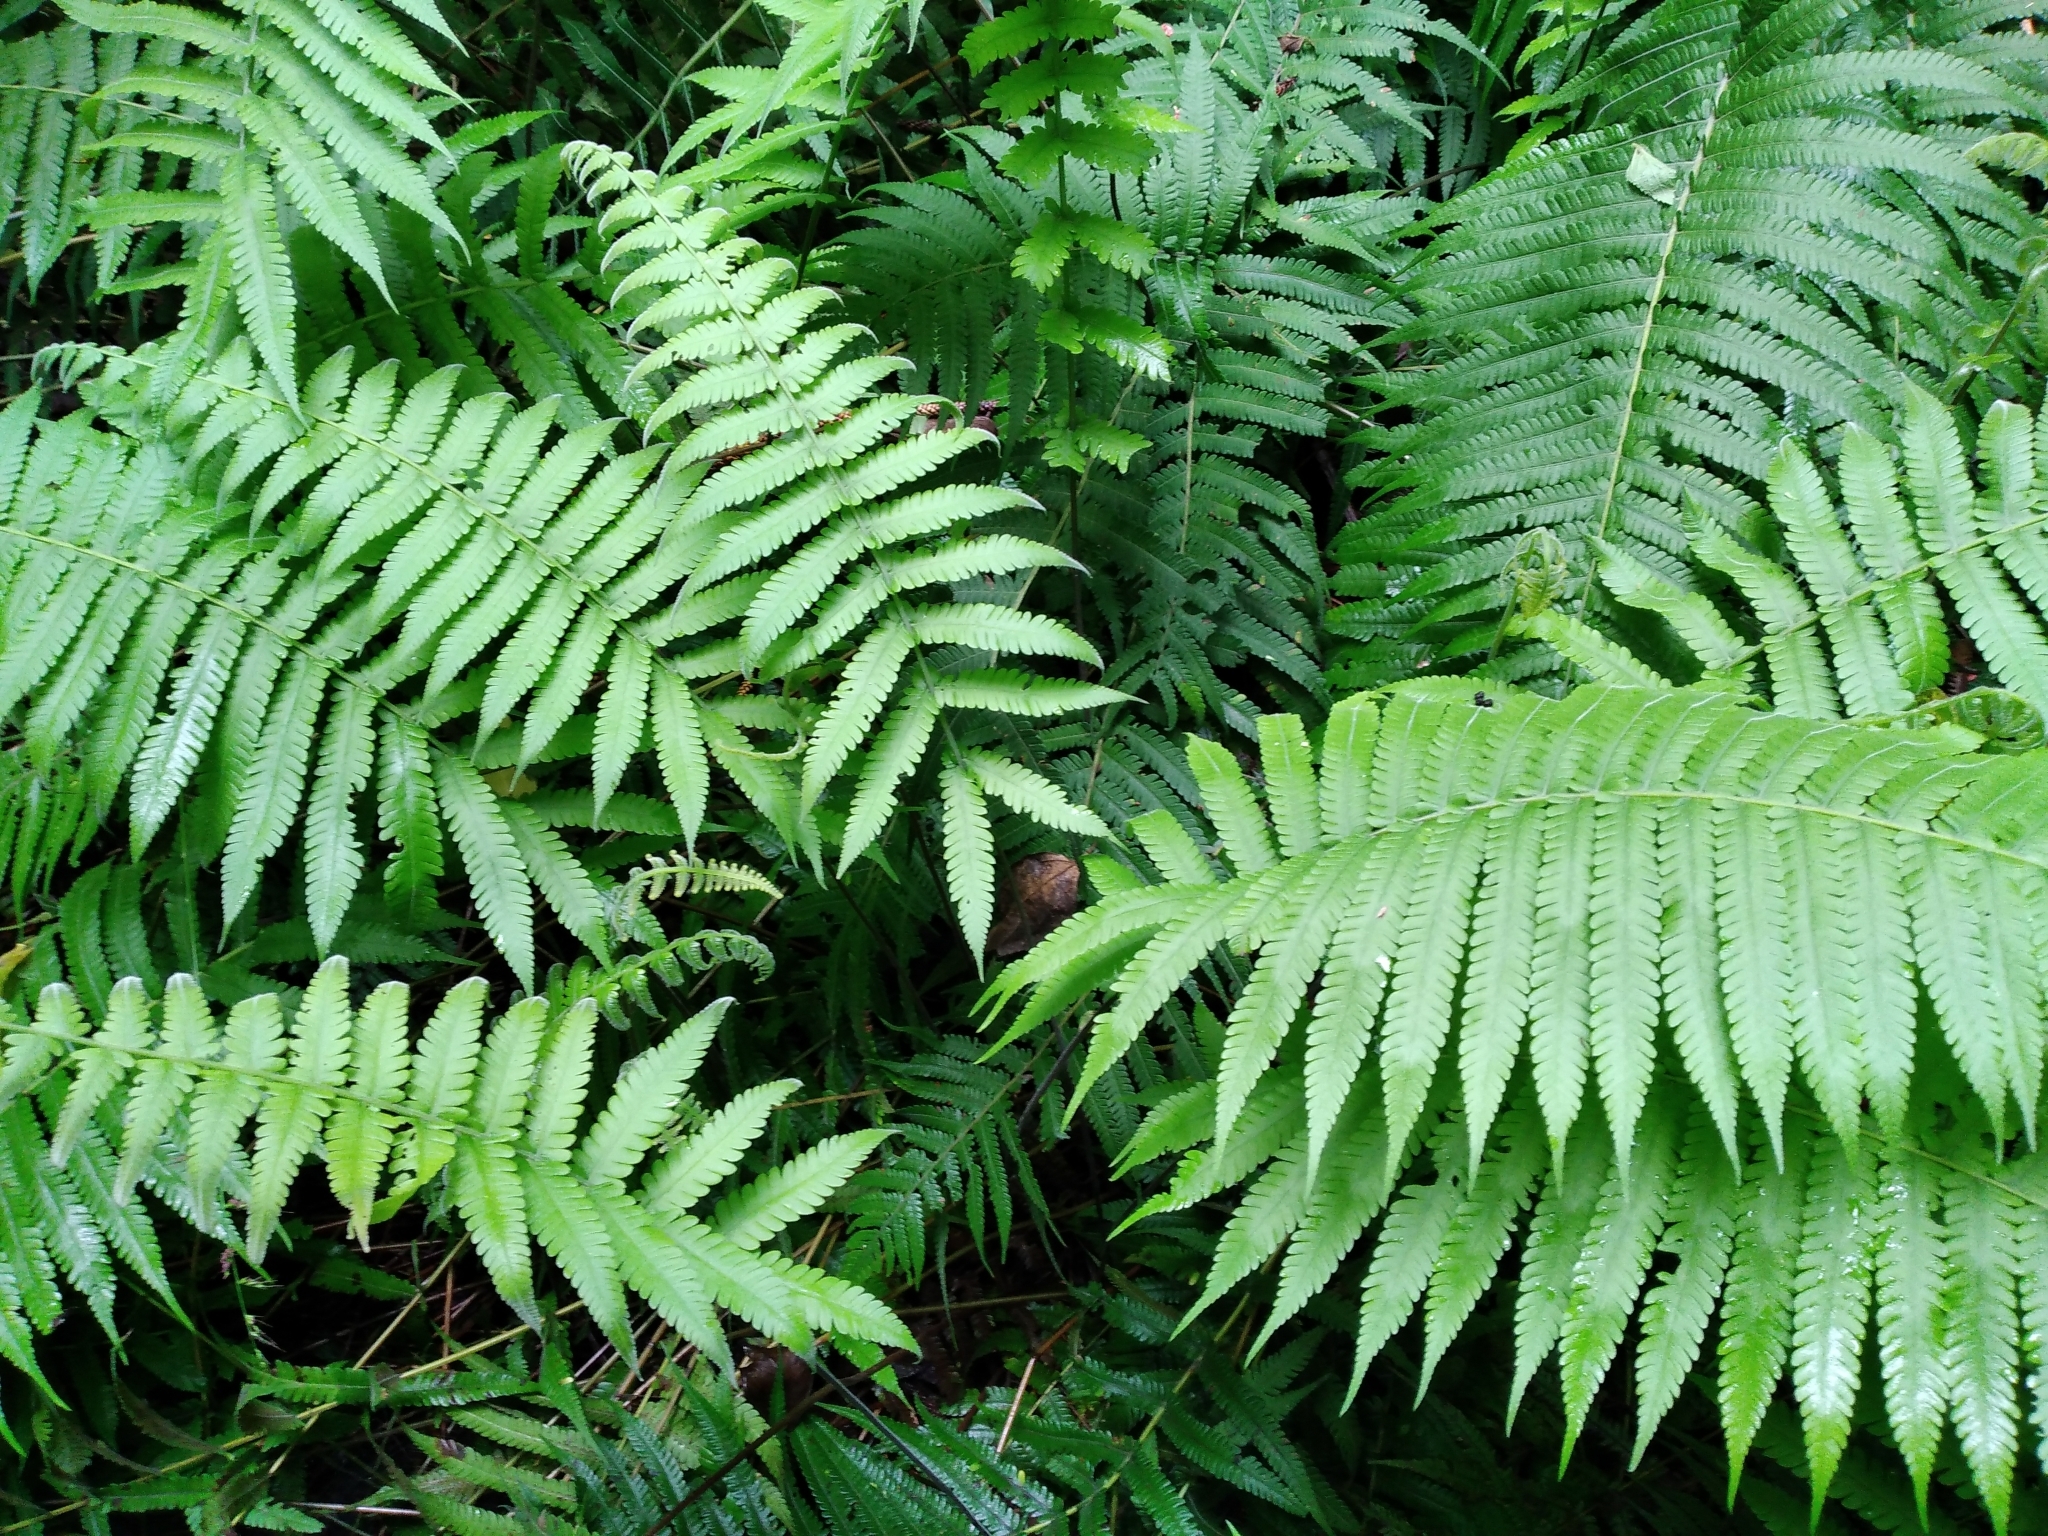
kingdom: Plantae
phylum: Tracheophyta
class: Polypodiopsida
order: Polypodiales
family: Thelypteridaceae
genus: Christella
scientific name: Christella parasitica
